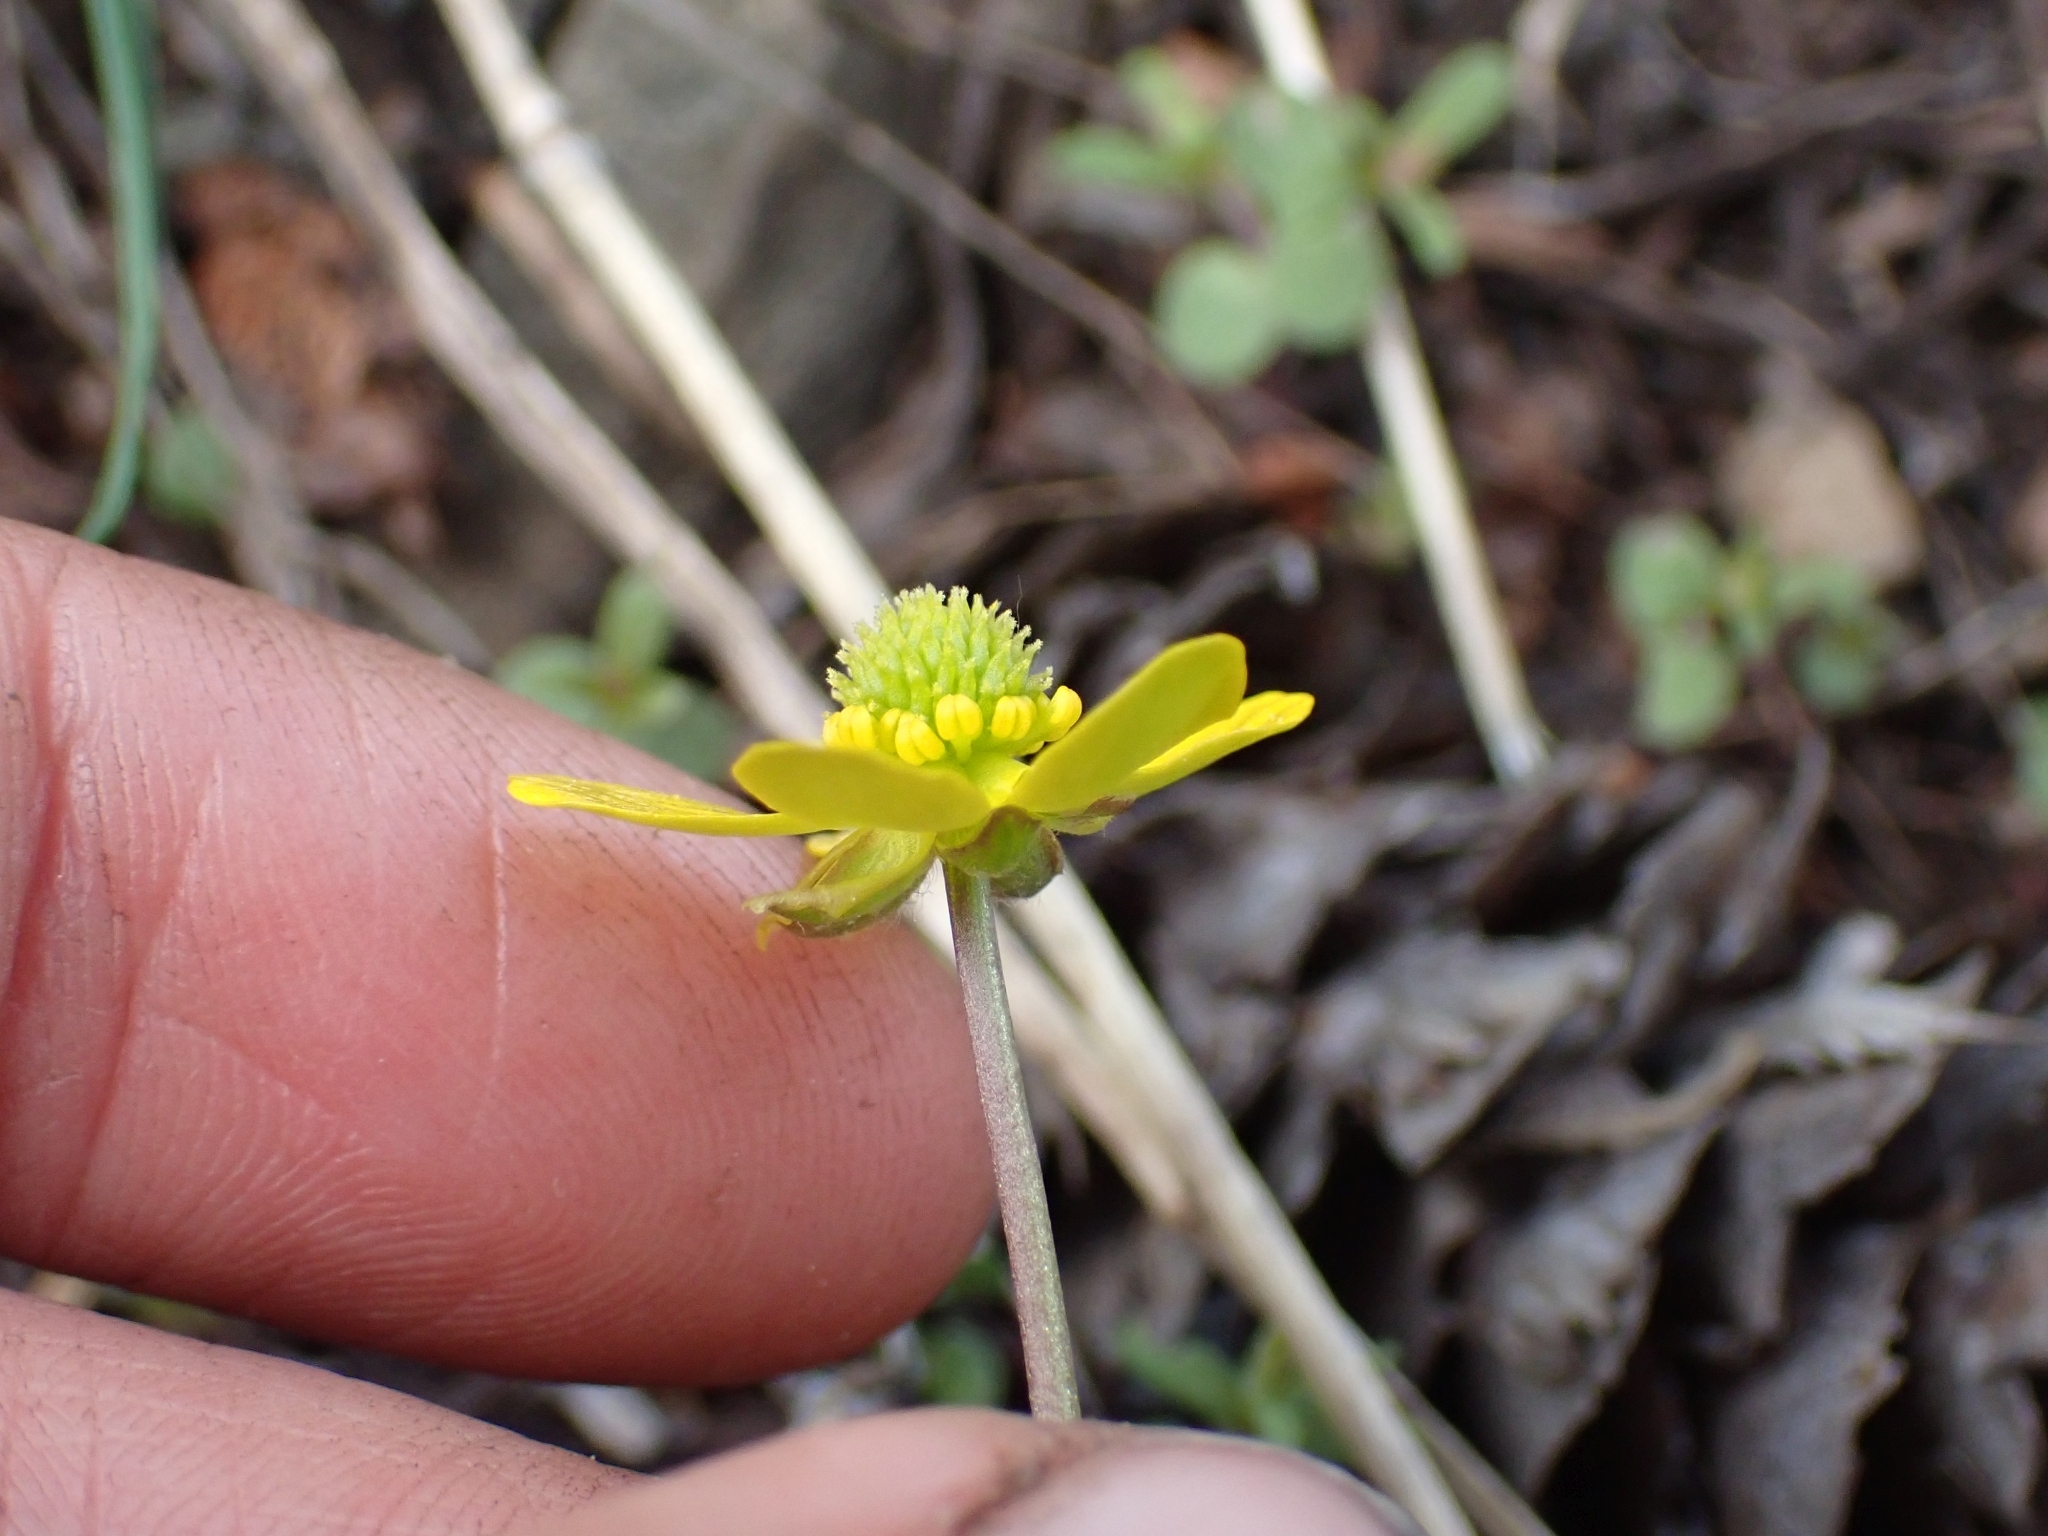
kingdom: Plantae
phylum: Tracheophyta
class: Magnoliopsida
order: Ranunculales
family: Ranunculaceae
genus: Ranunculus
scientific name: Ranunculus glaberrimus
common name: Sagebrush buttercup
